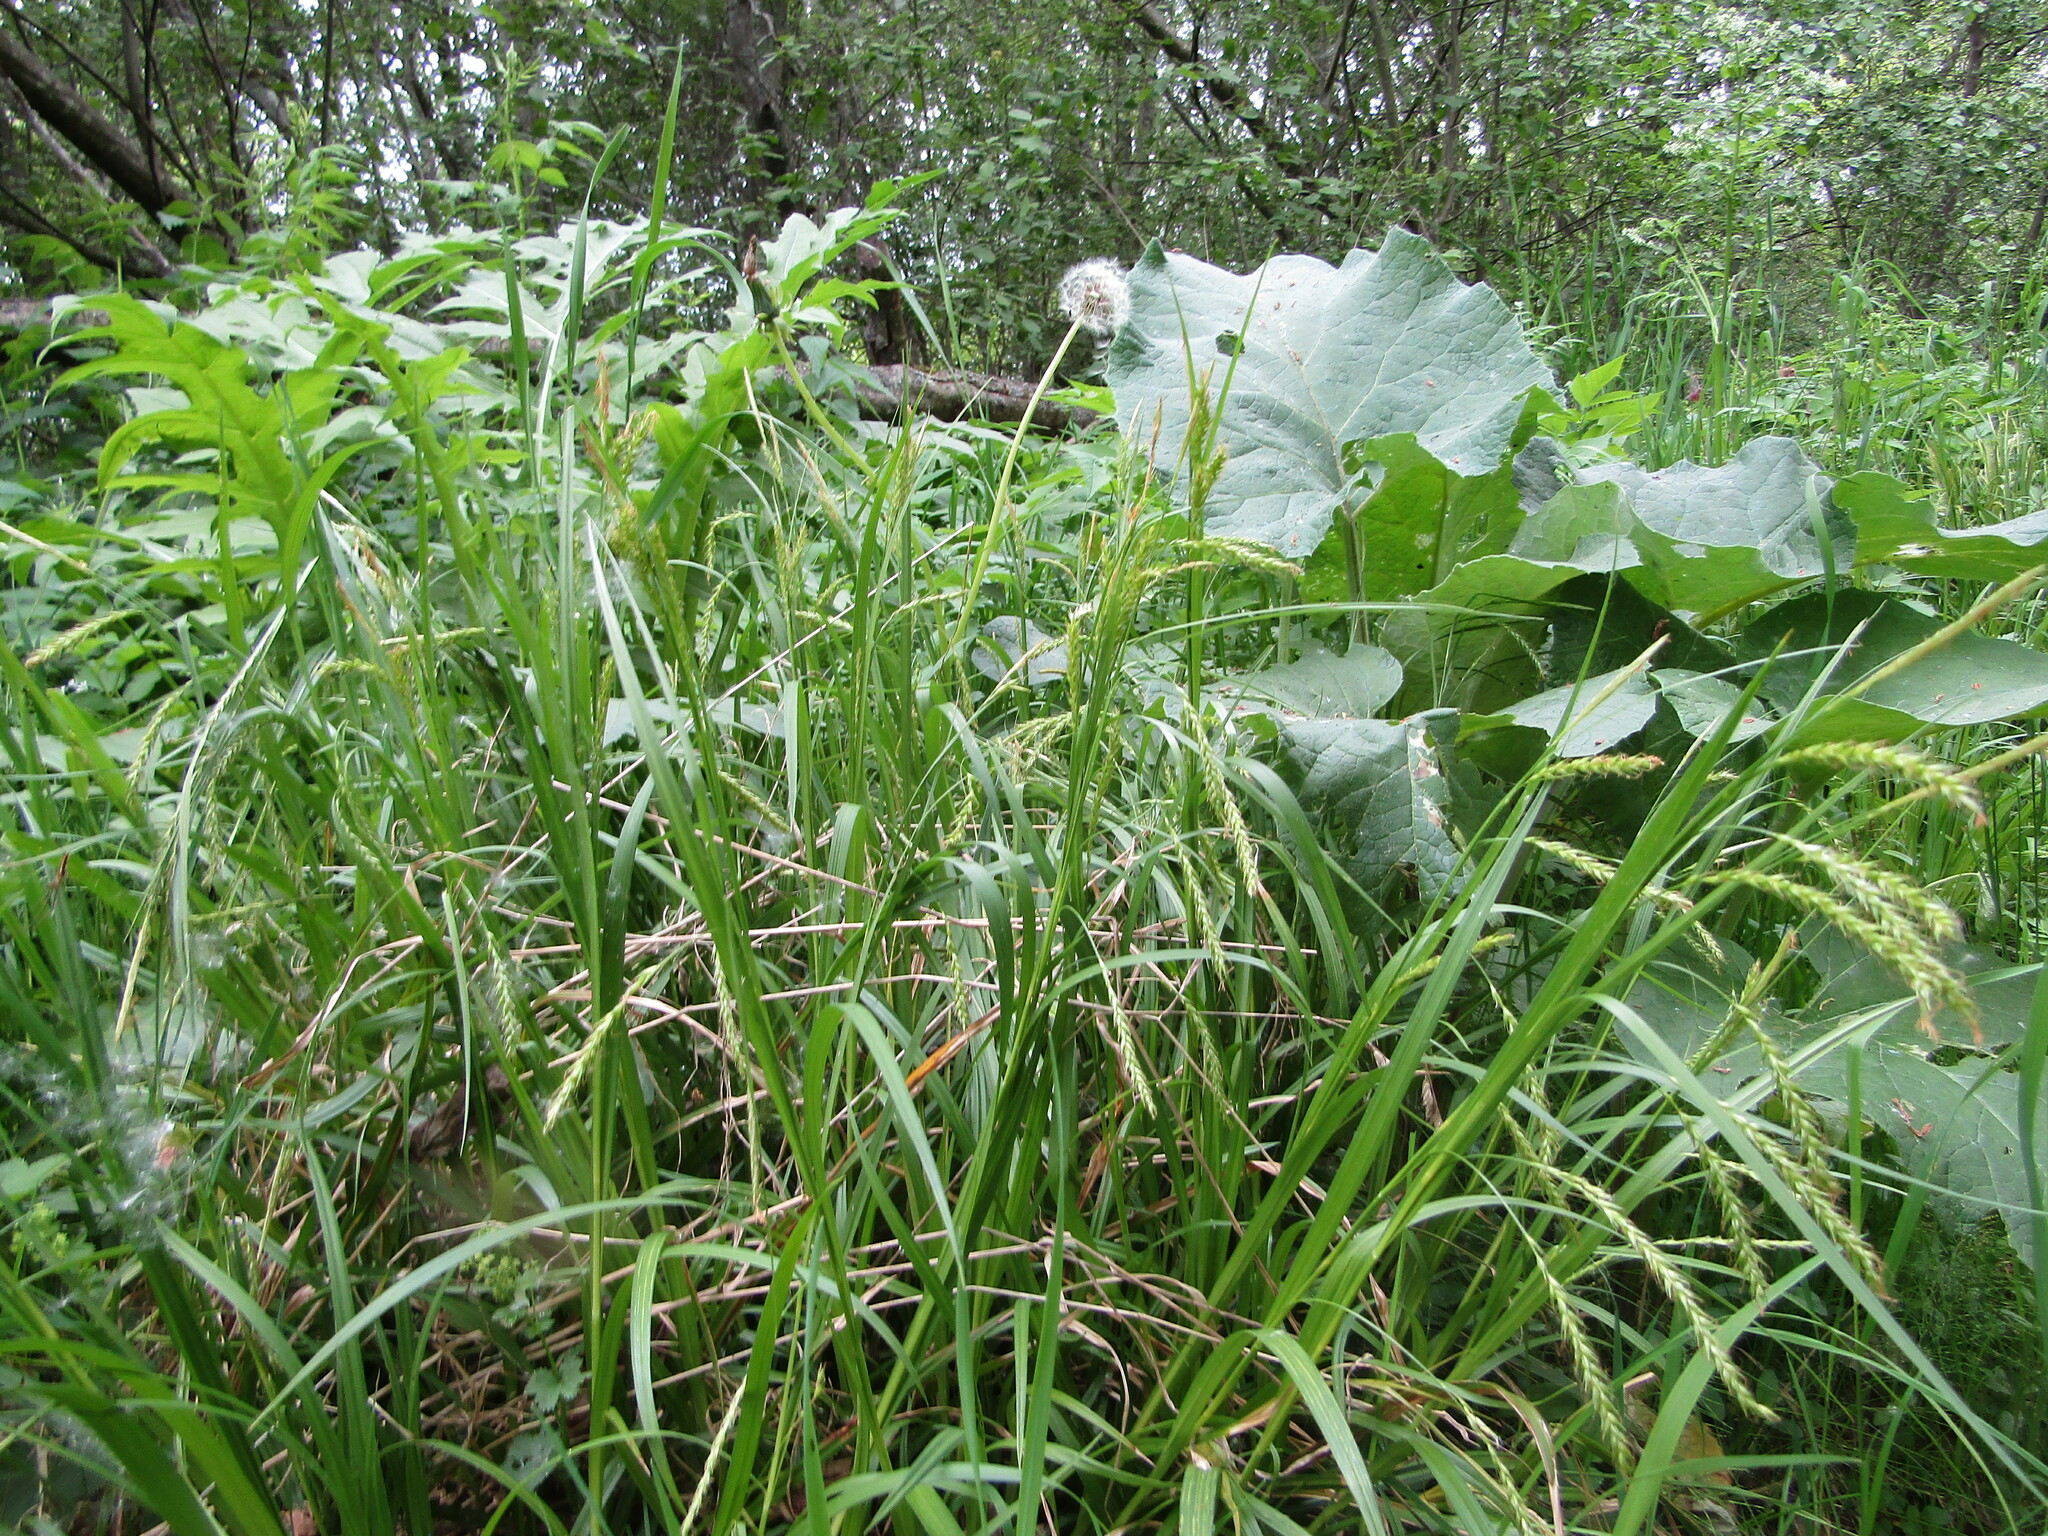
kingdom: Plantae
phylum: Tracheophyta
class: Liliopsida
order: Poales
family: Cyperaceae
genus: Carex
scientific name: Carex sylvatica
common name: Wood-sedge
